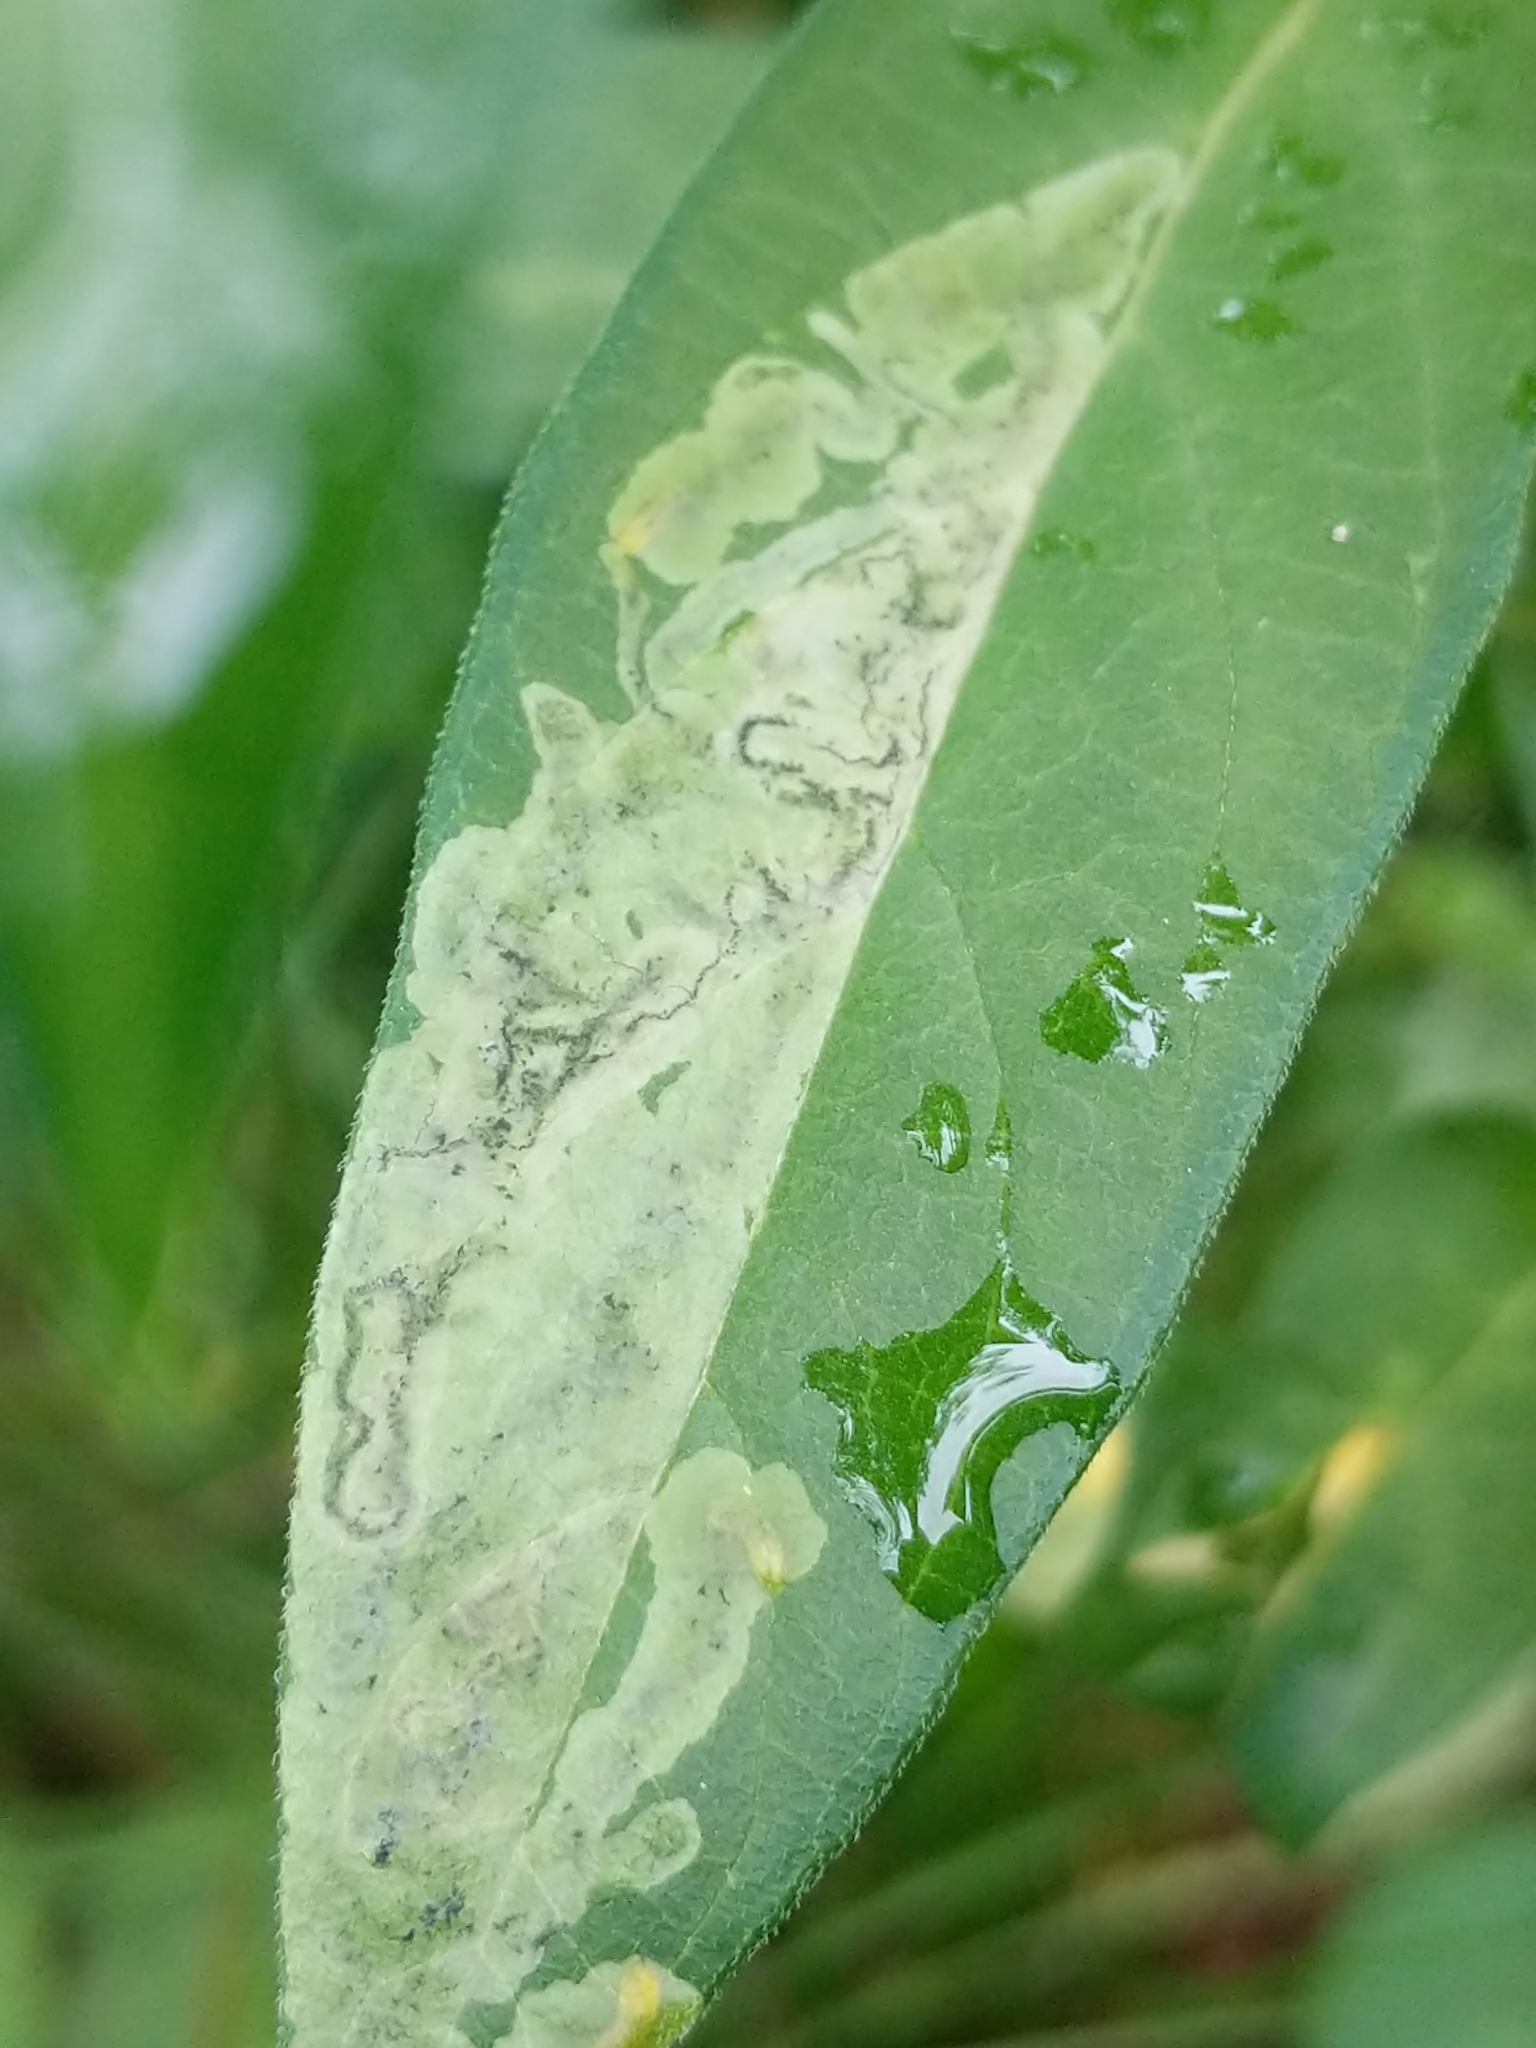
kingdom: Animalia
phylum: Arthropoda
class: Insecta
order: Diptera
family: Agromyzidae
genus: Liriomyza
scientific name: Liriomyza asclepiadis
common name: Milkweed leaf-miner fly
